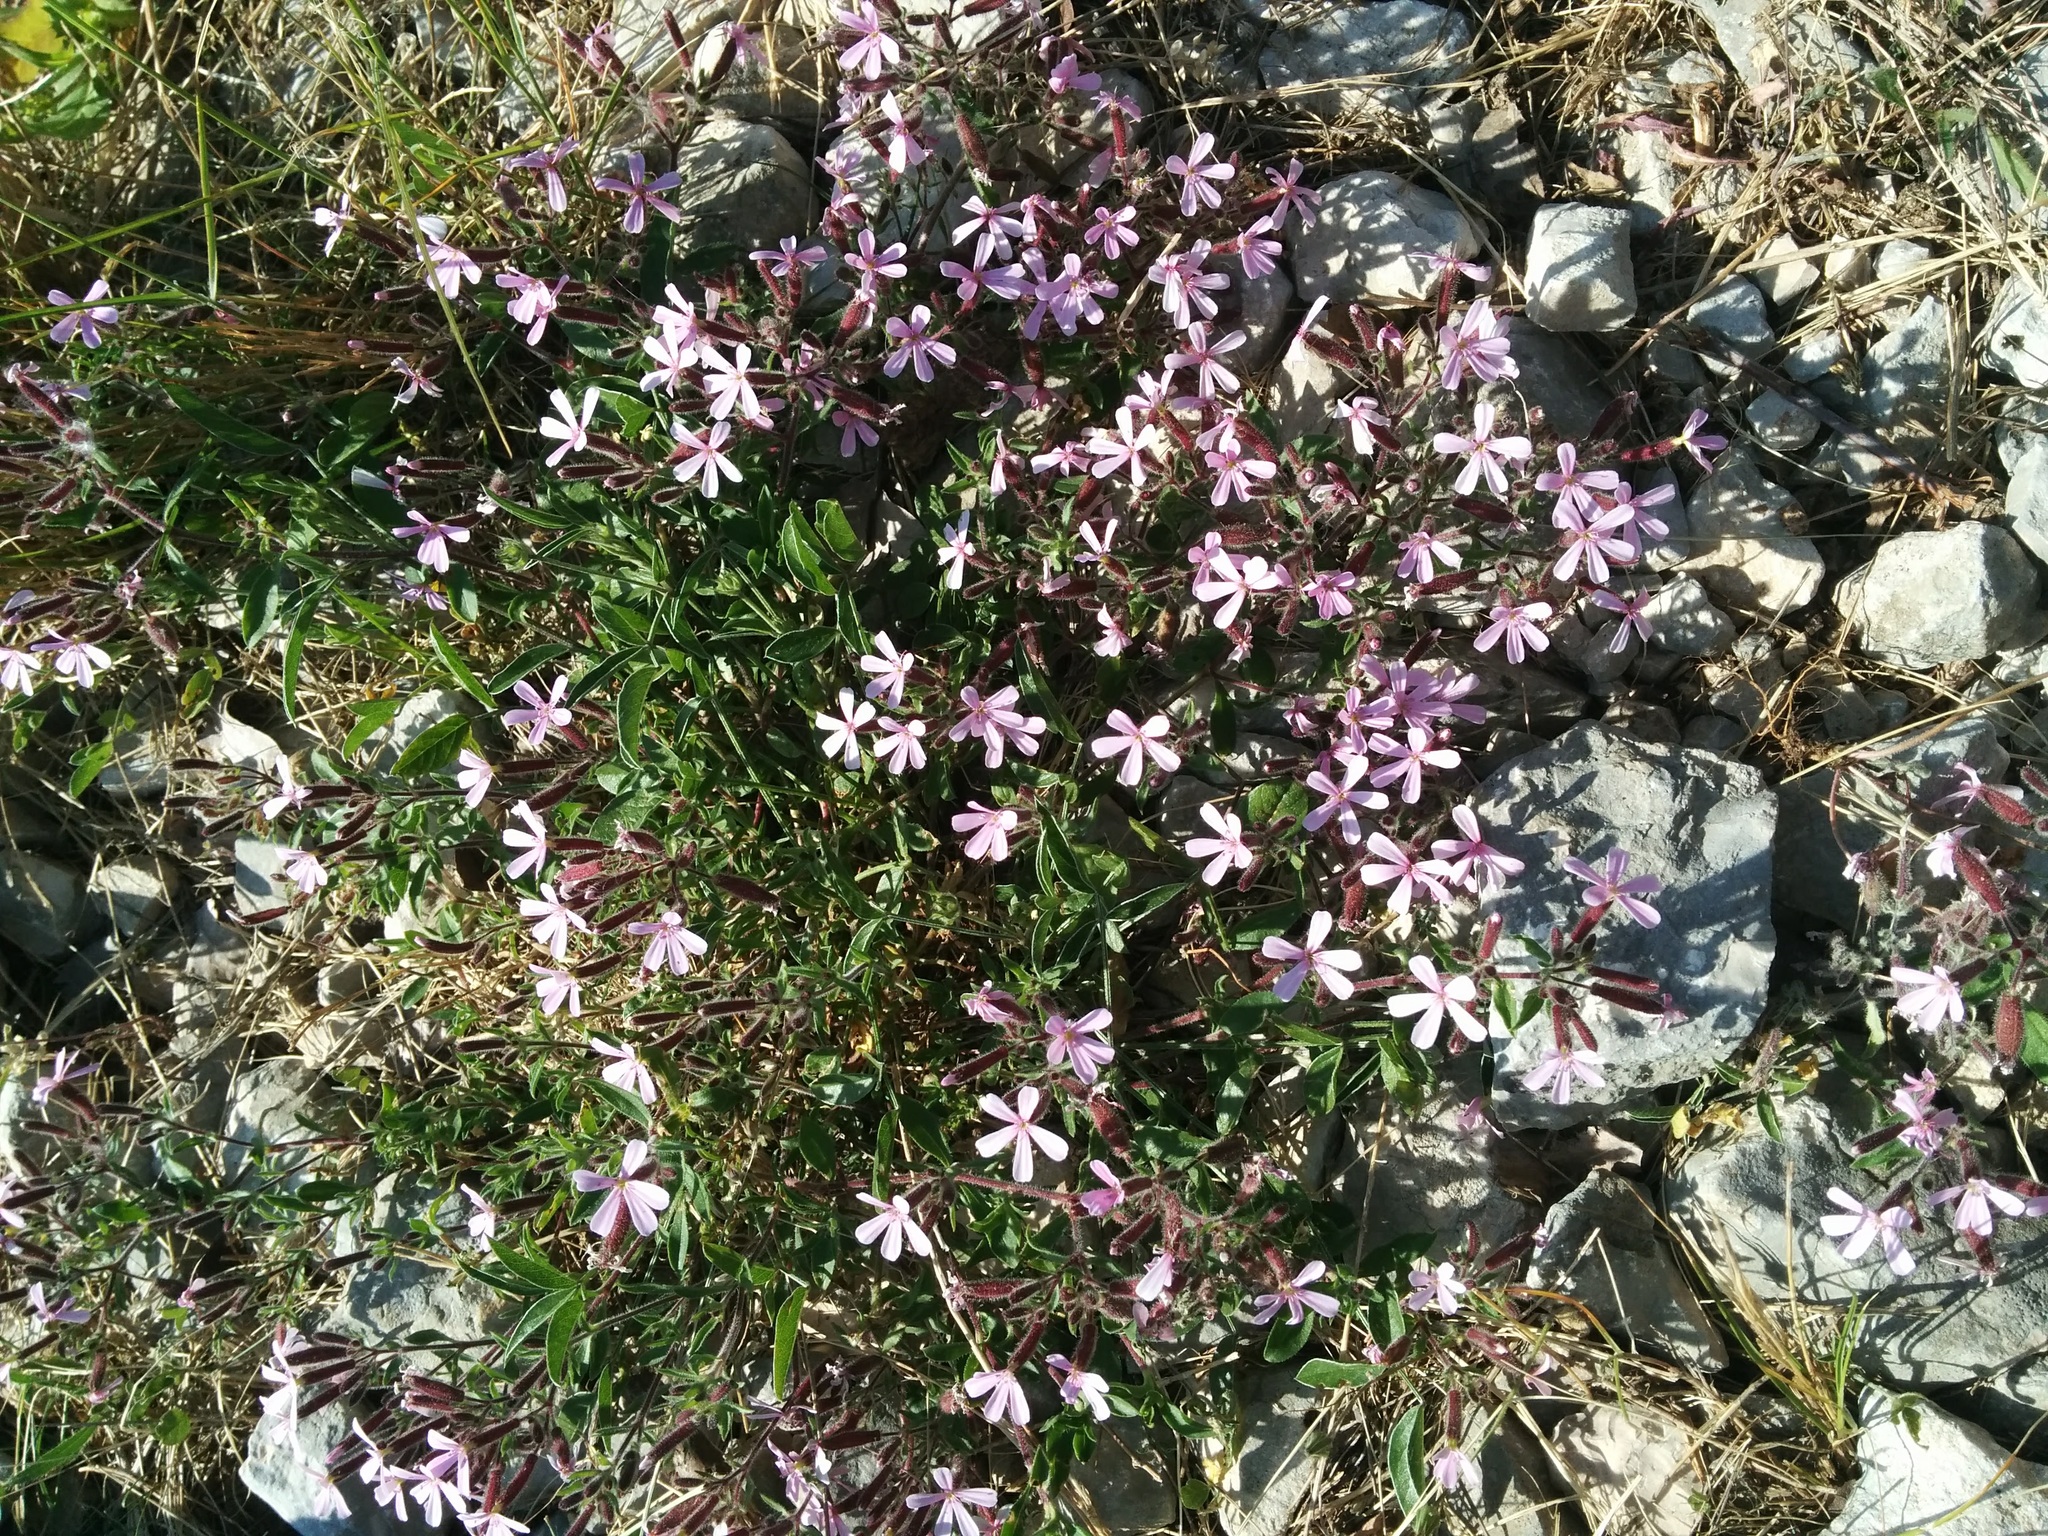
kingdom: Plantae
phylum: Tracheophyta
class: Magnoliopsida
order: Caryophyllales
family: Caryophyllaceae
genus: Saponaria
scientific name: Saponaria ocymoides
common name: Rock soapwort
